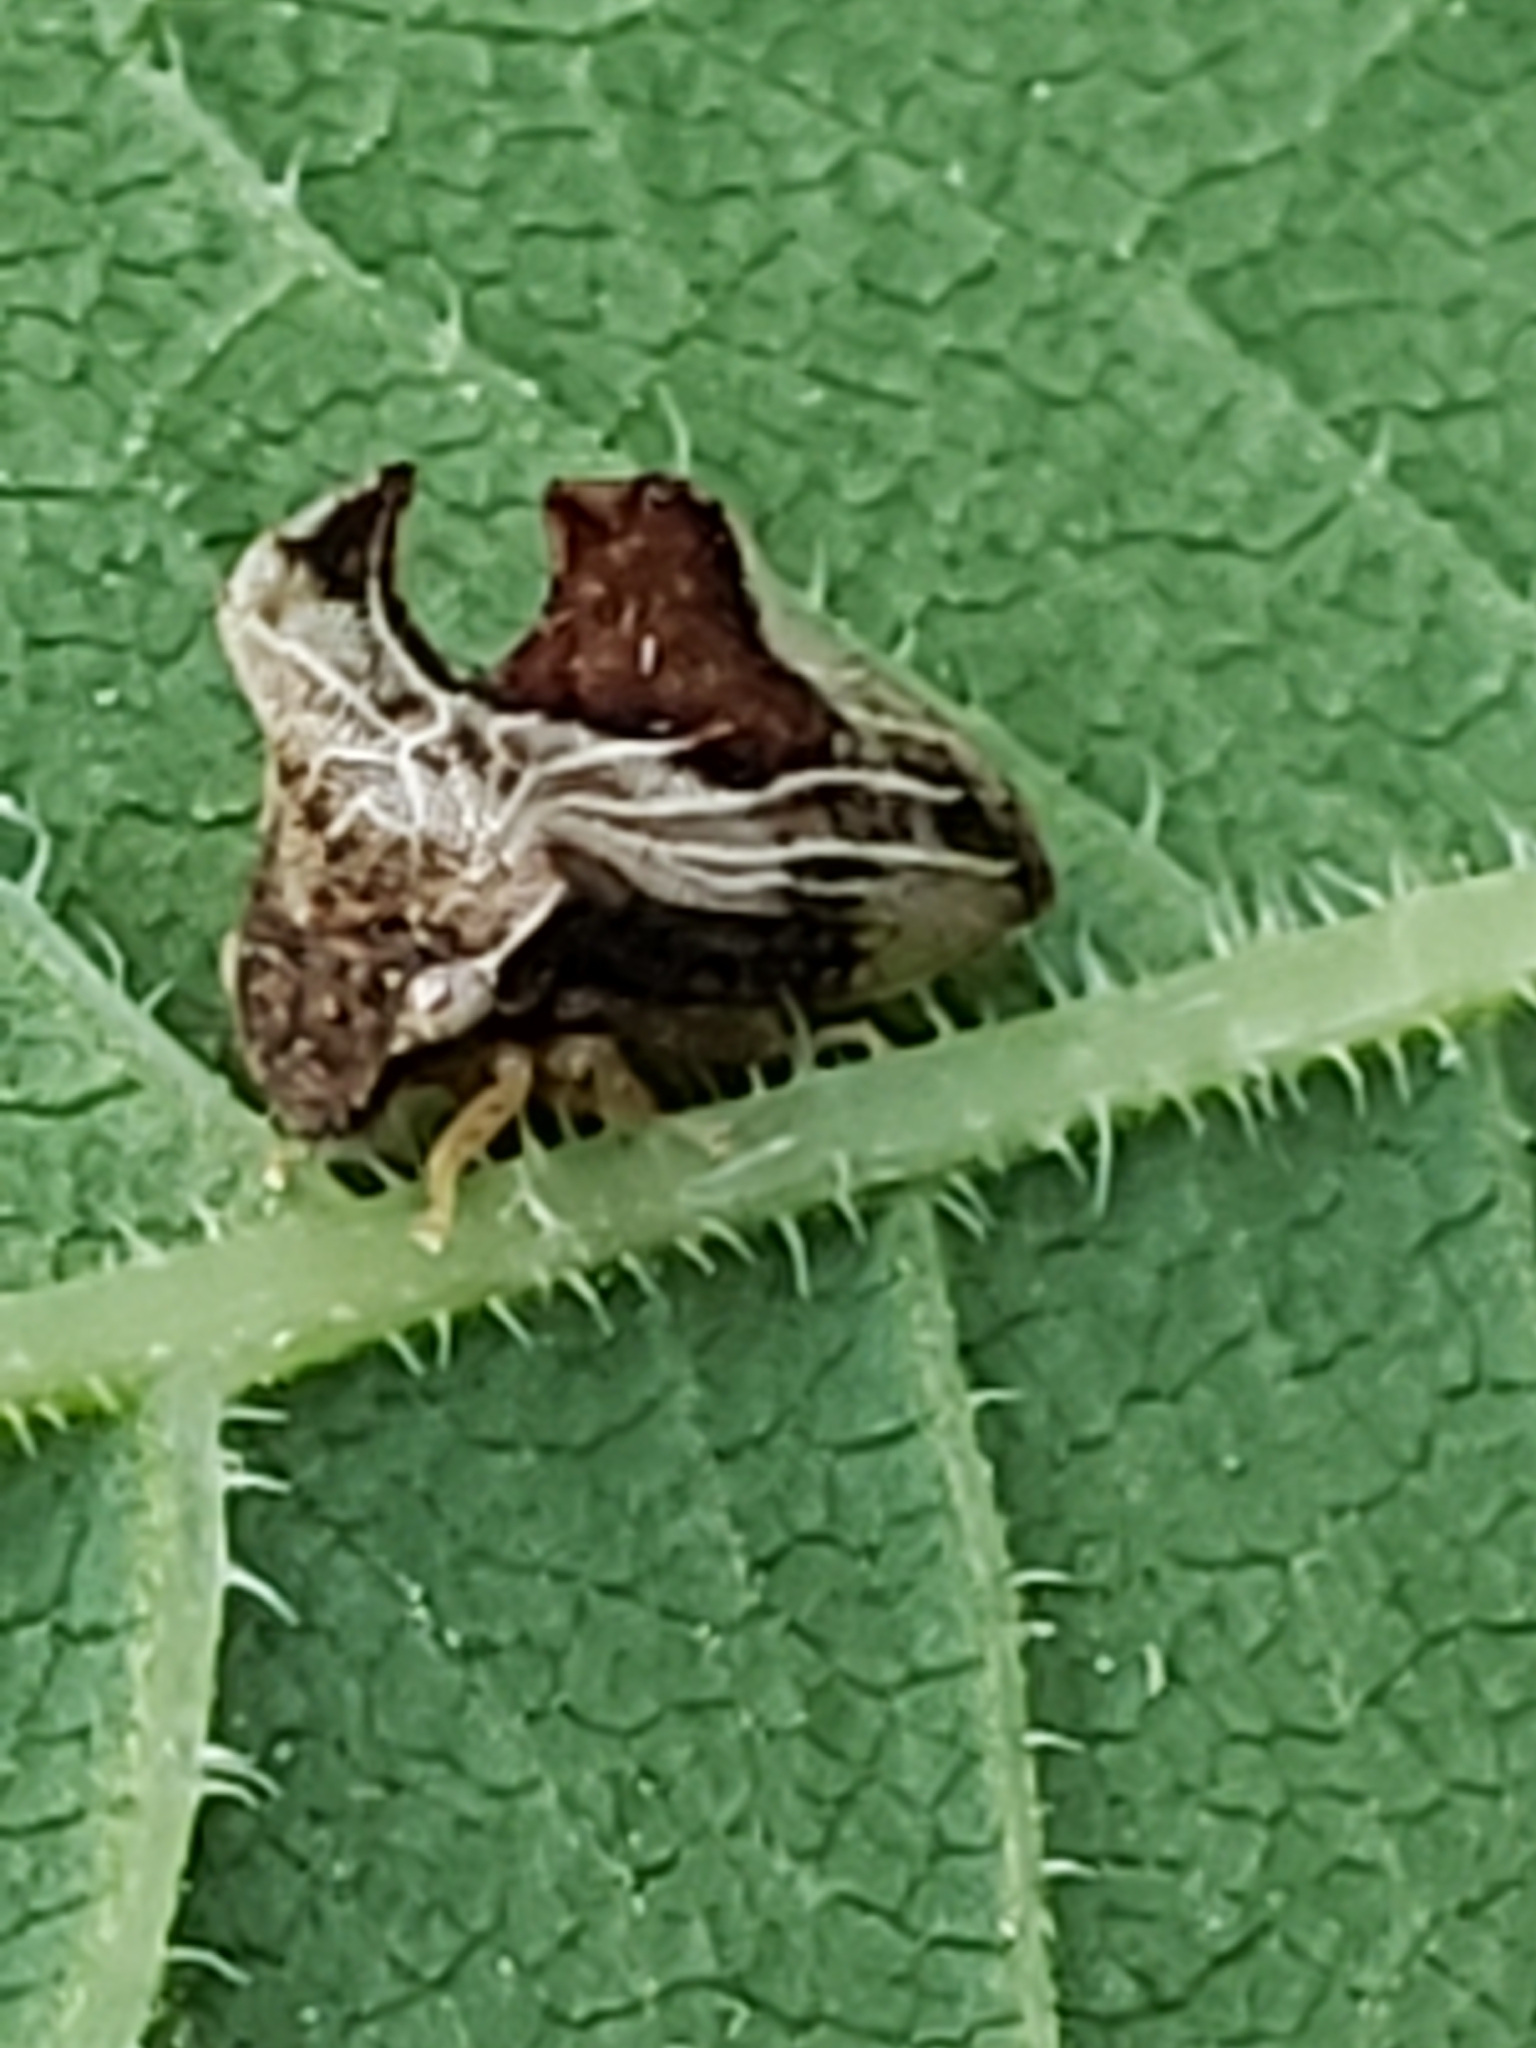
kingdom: Animalia
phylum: Arthropoda
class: Insecta
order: Hemiptera
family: Membracidae
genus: Entylia
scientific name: Entylia carinata
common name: Keeled treehopper
